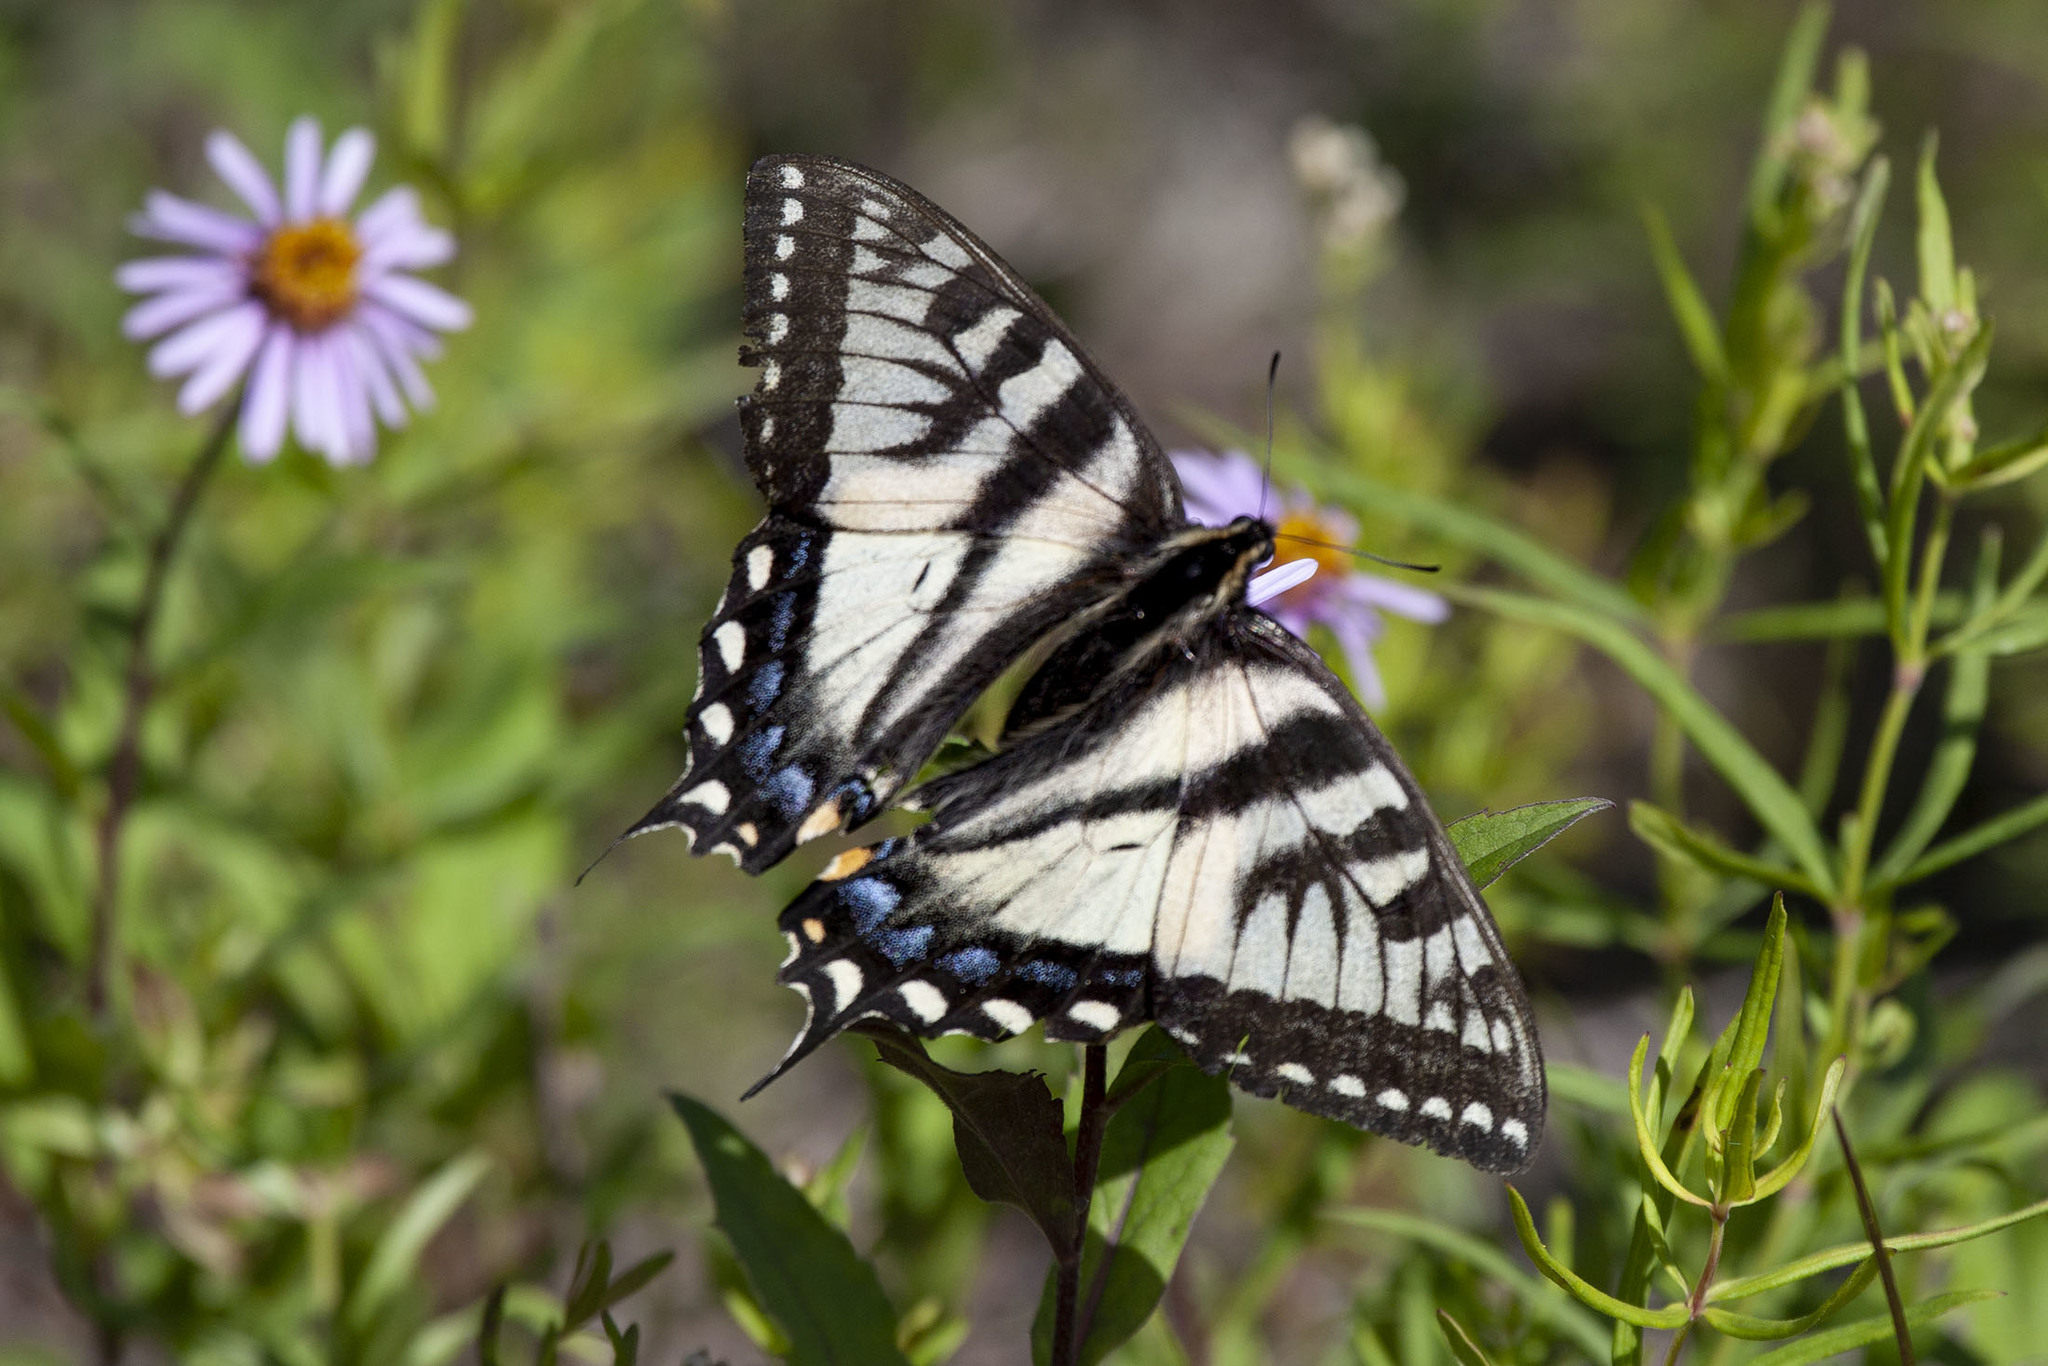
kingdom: Animalia
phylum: Arthropoda
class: Insecta
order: Lepidoptera
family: Papilionidae
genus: Papilio
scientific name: Papilio canadensis
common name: Canadian tiger swallowtail
